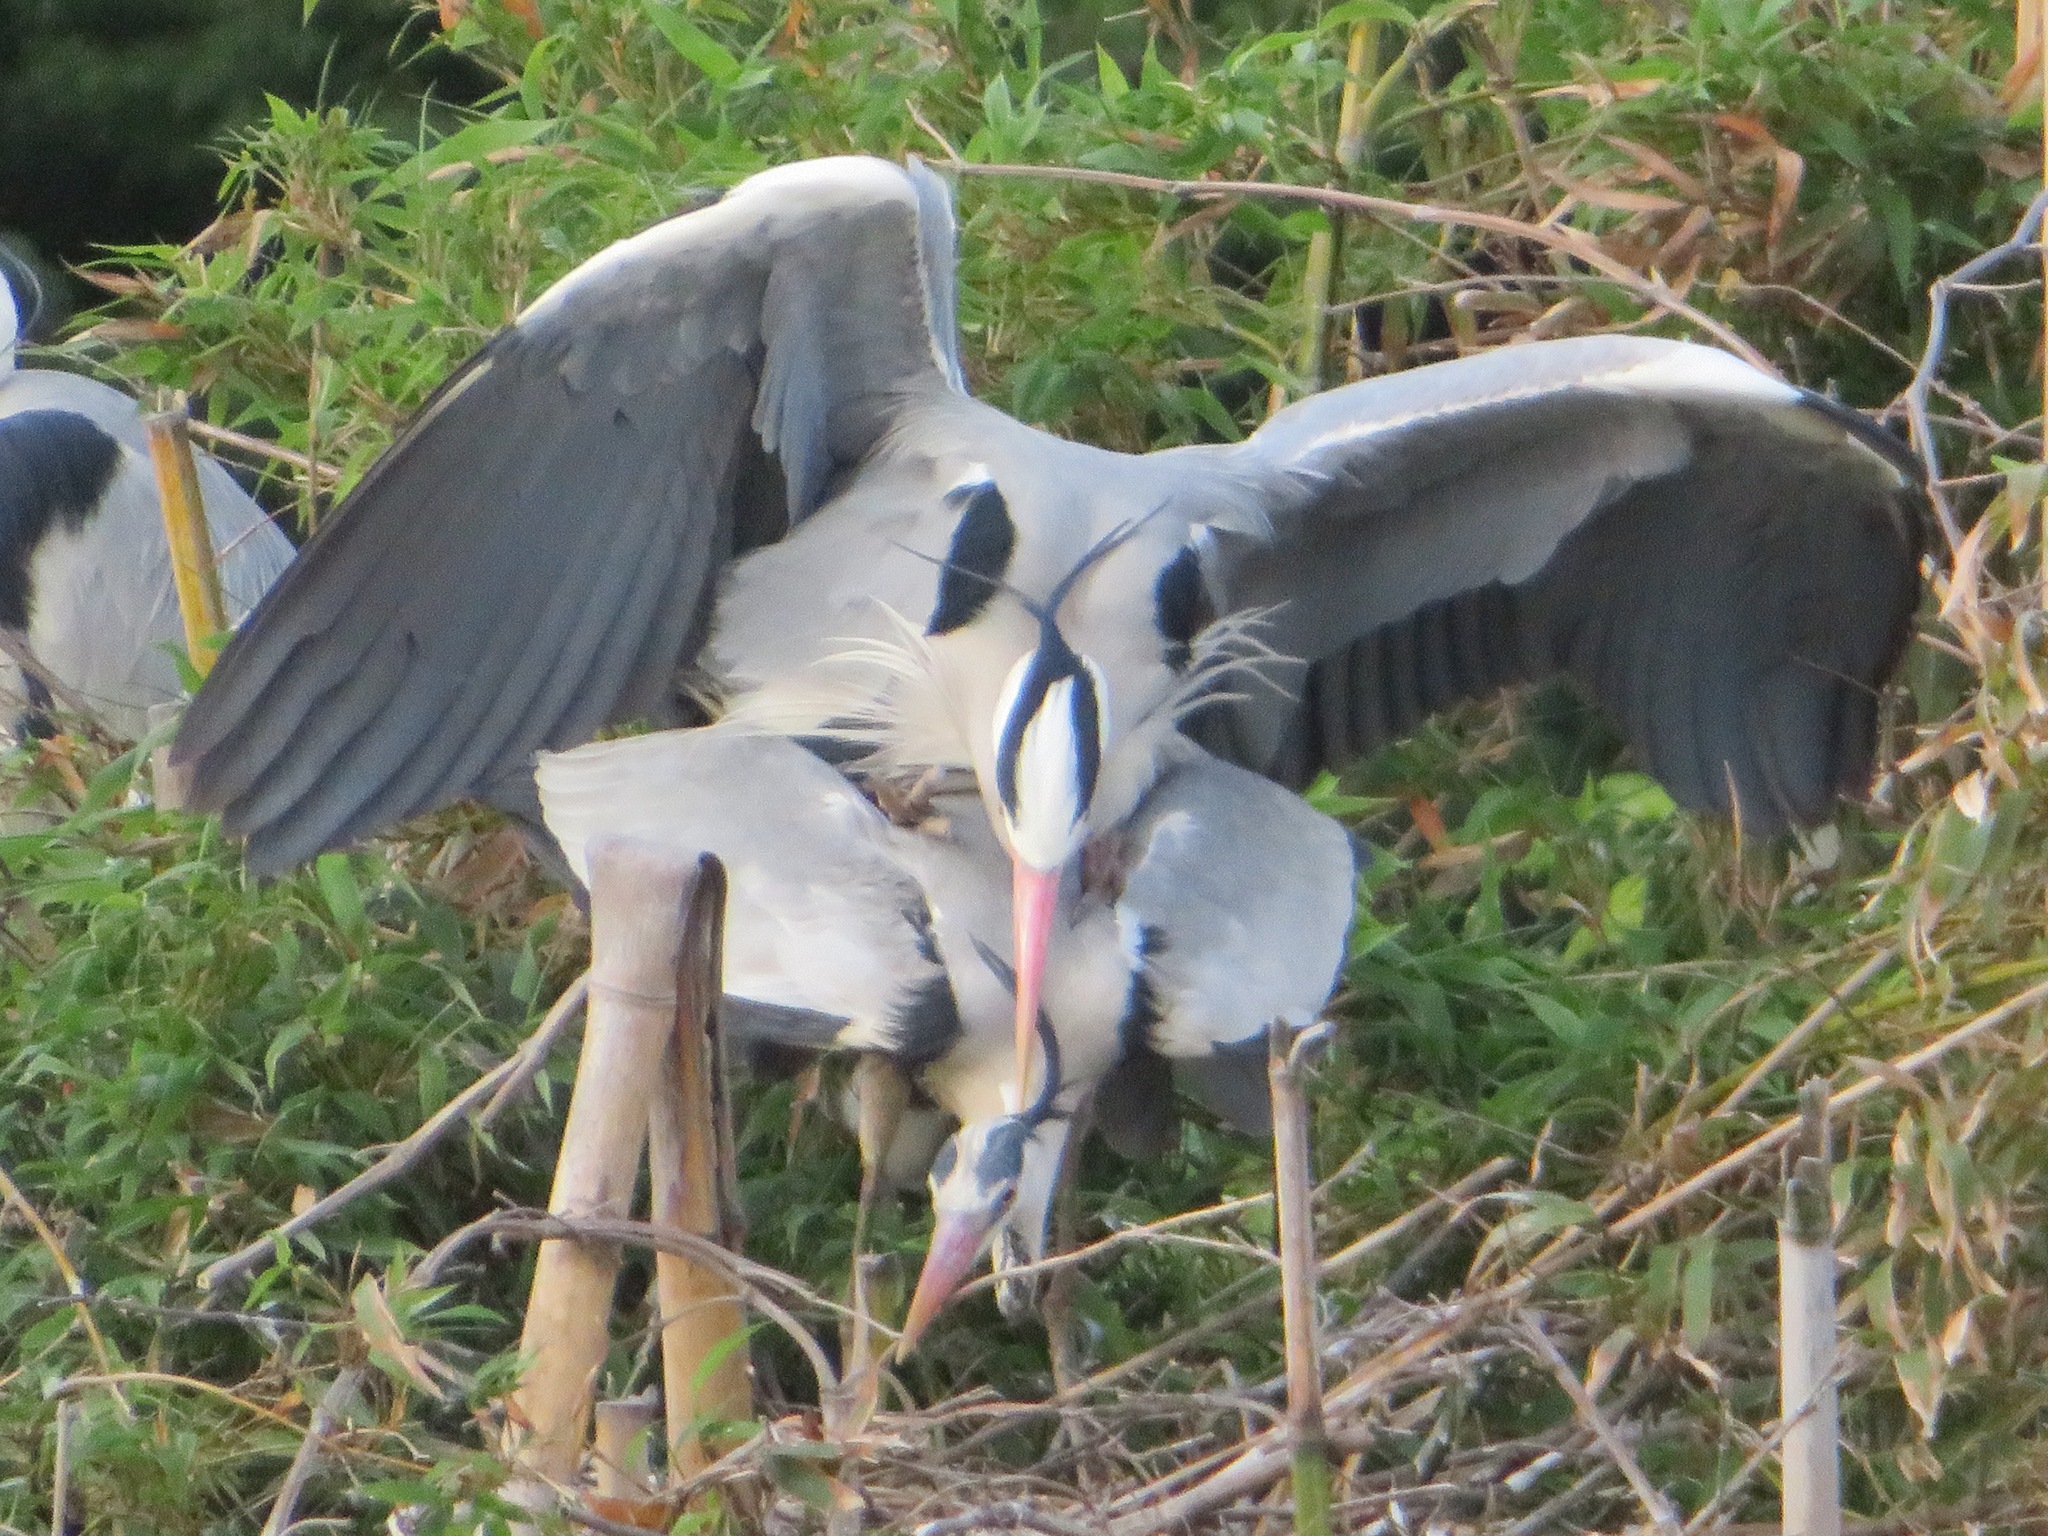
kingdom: Animalia
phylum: Chordata
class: Aves
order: Pelecaniformes
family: Ardeidae
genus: Ardea
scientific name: Ardea cinerea
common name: Grey heron
